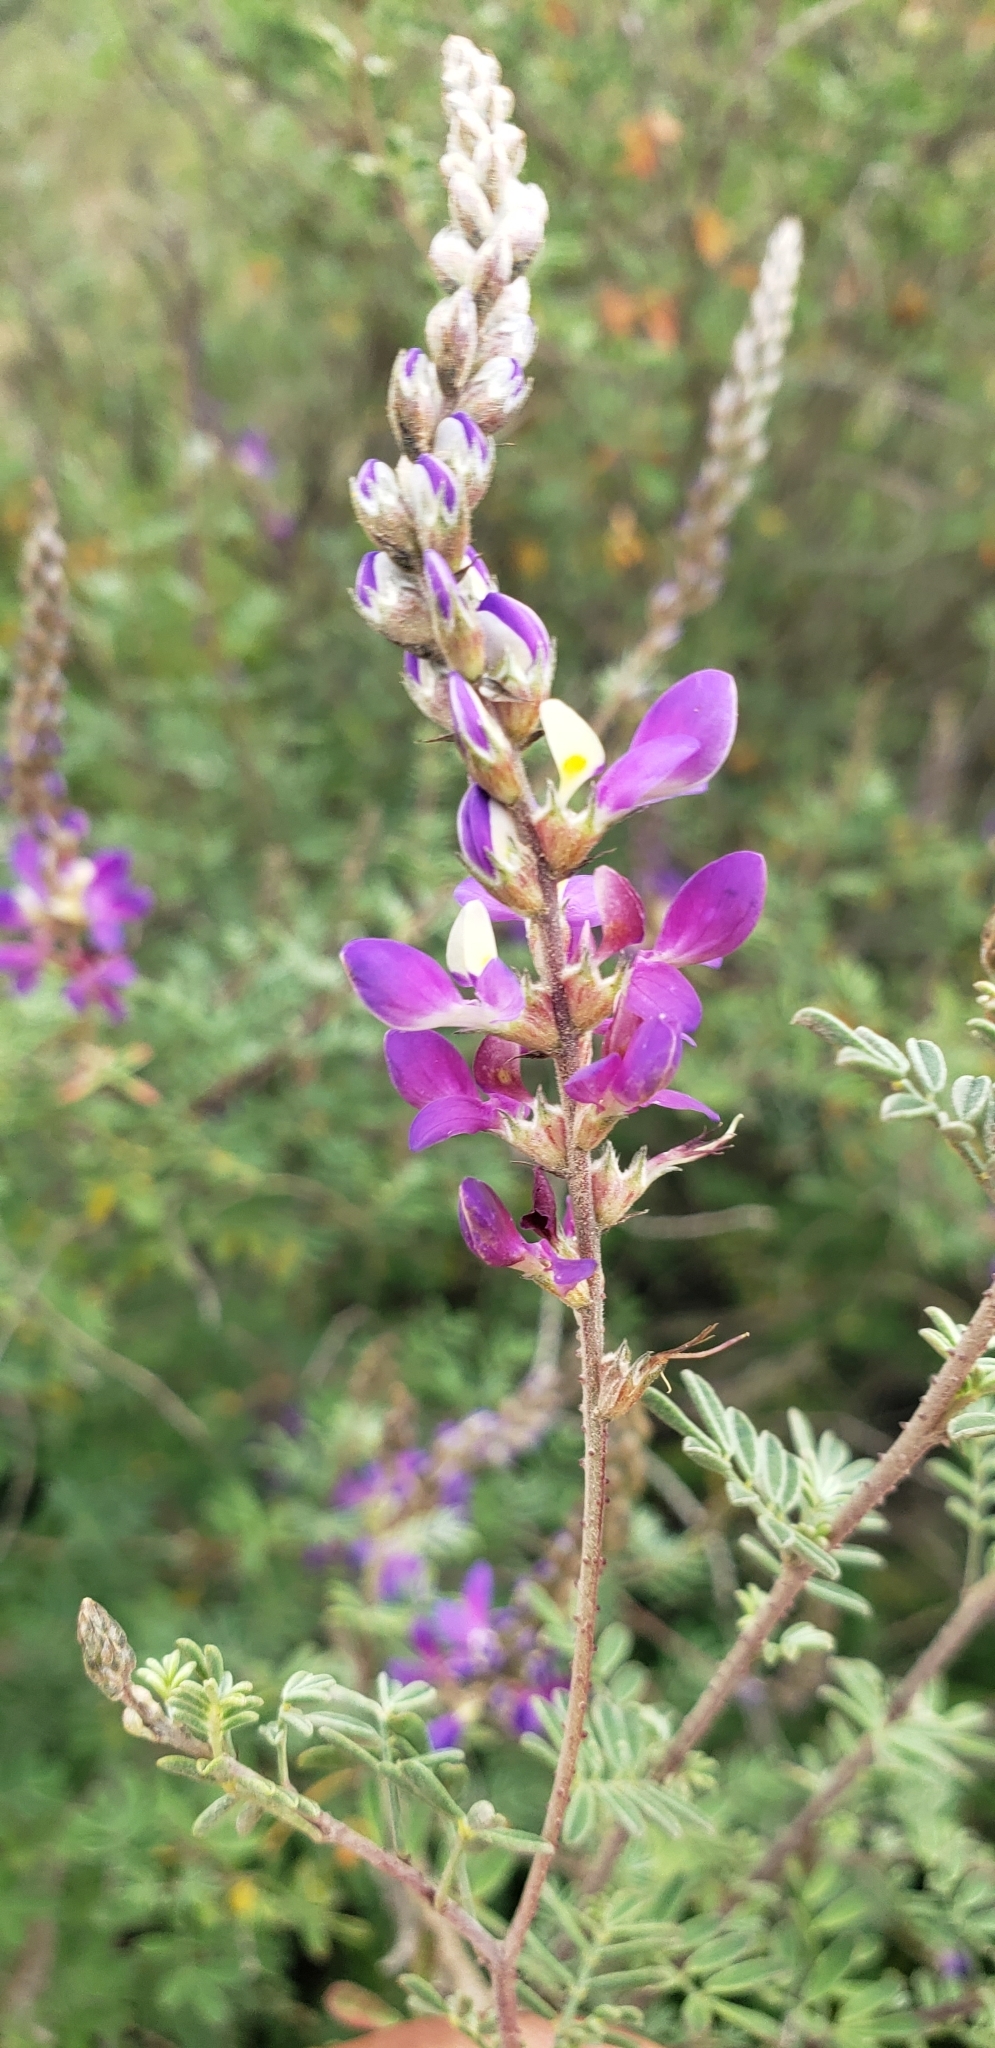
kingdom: Plantae
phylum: Tracheophyta
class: Magnoliopsida
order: Fabales
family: Fabaceae
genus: Dalea
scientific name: Dalea bicolor
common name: Silver prairie-clover
